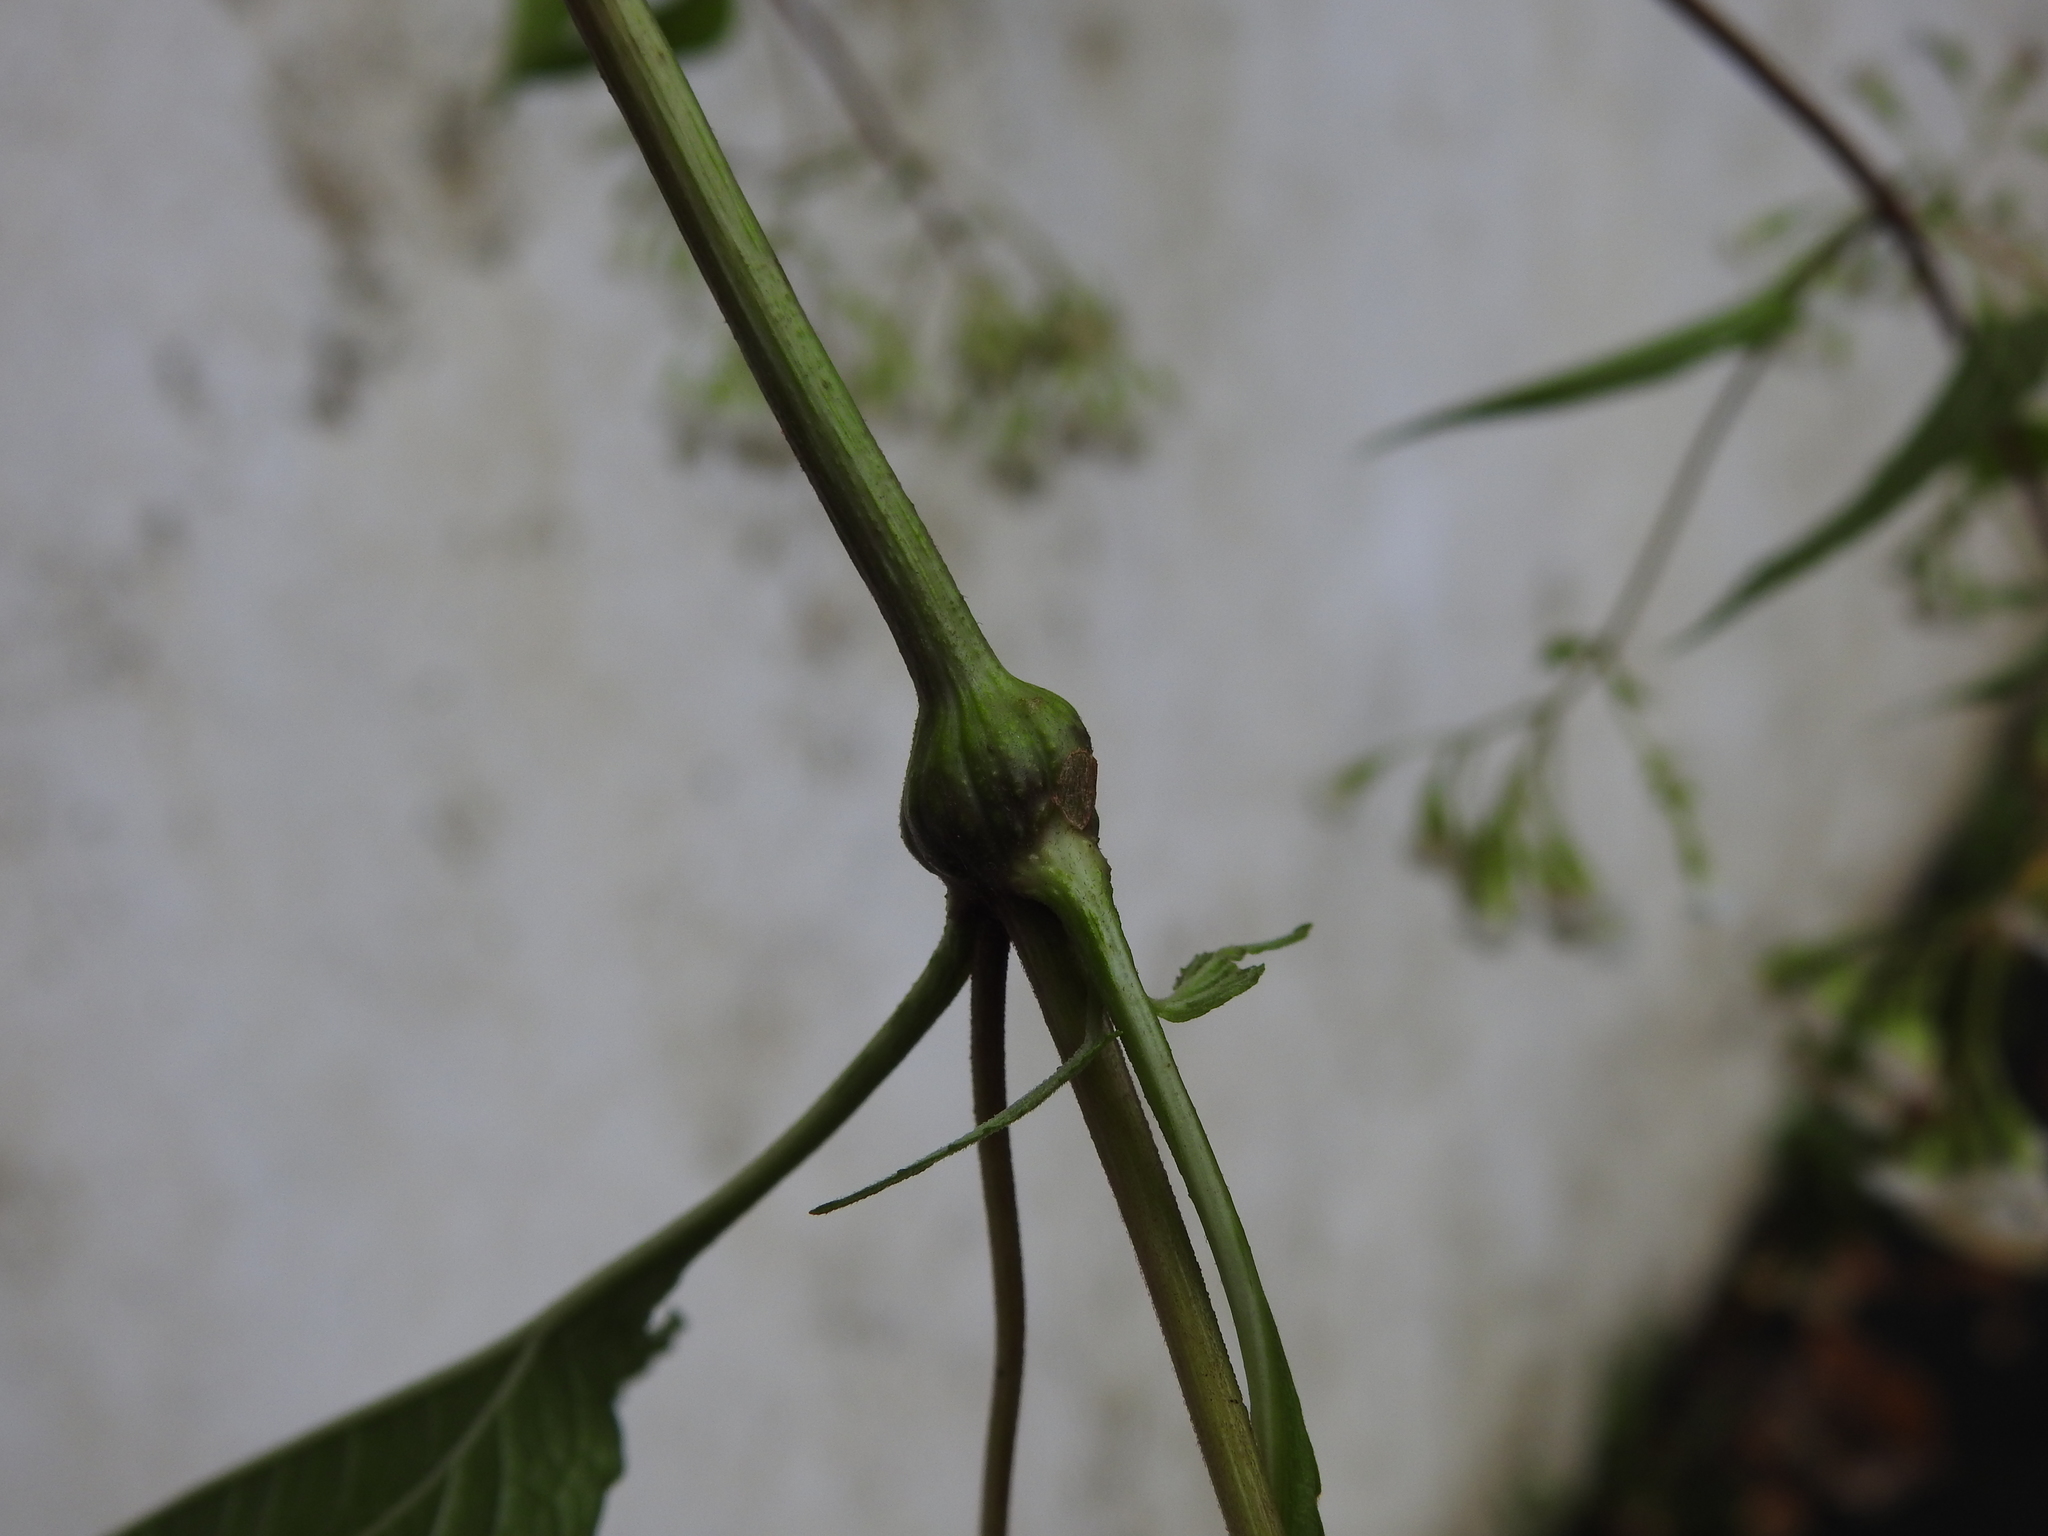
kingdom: Animalia
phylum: Arthropoda
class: Insecta
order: Diptera
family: Cecidomyiidae
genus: Neolasioptera
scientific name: Neolasioptera eupatorii
